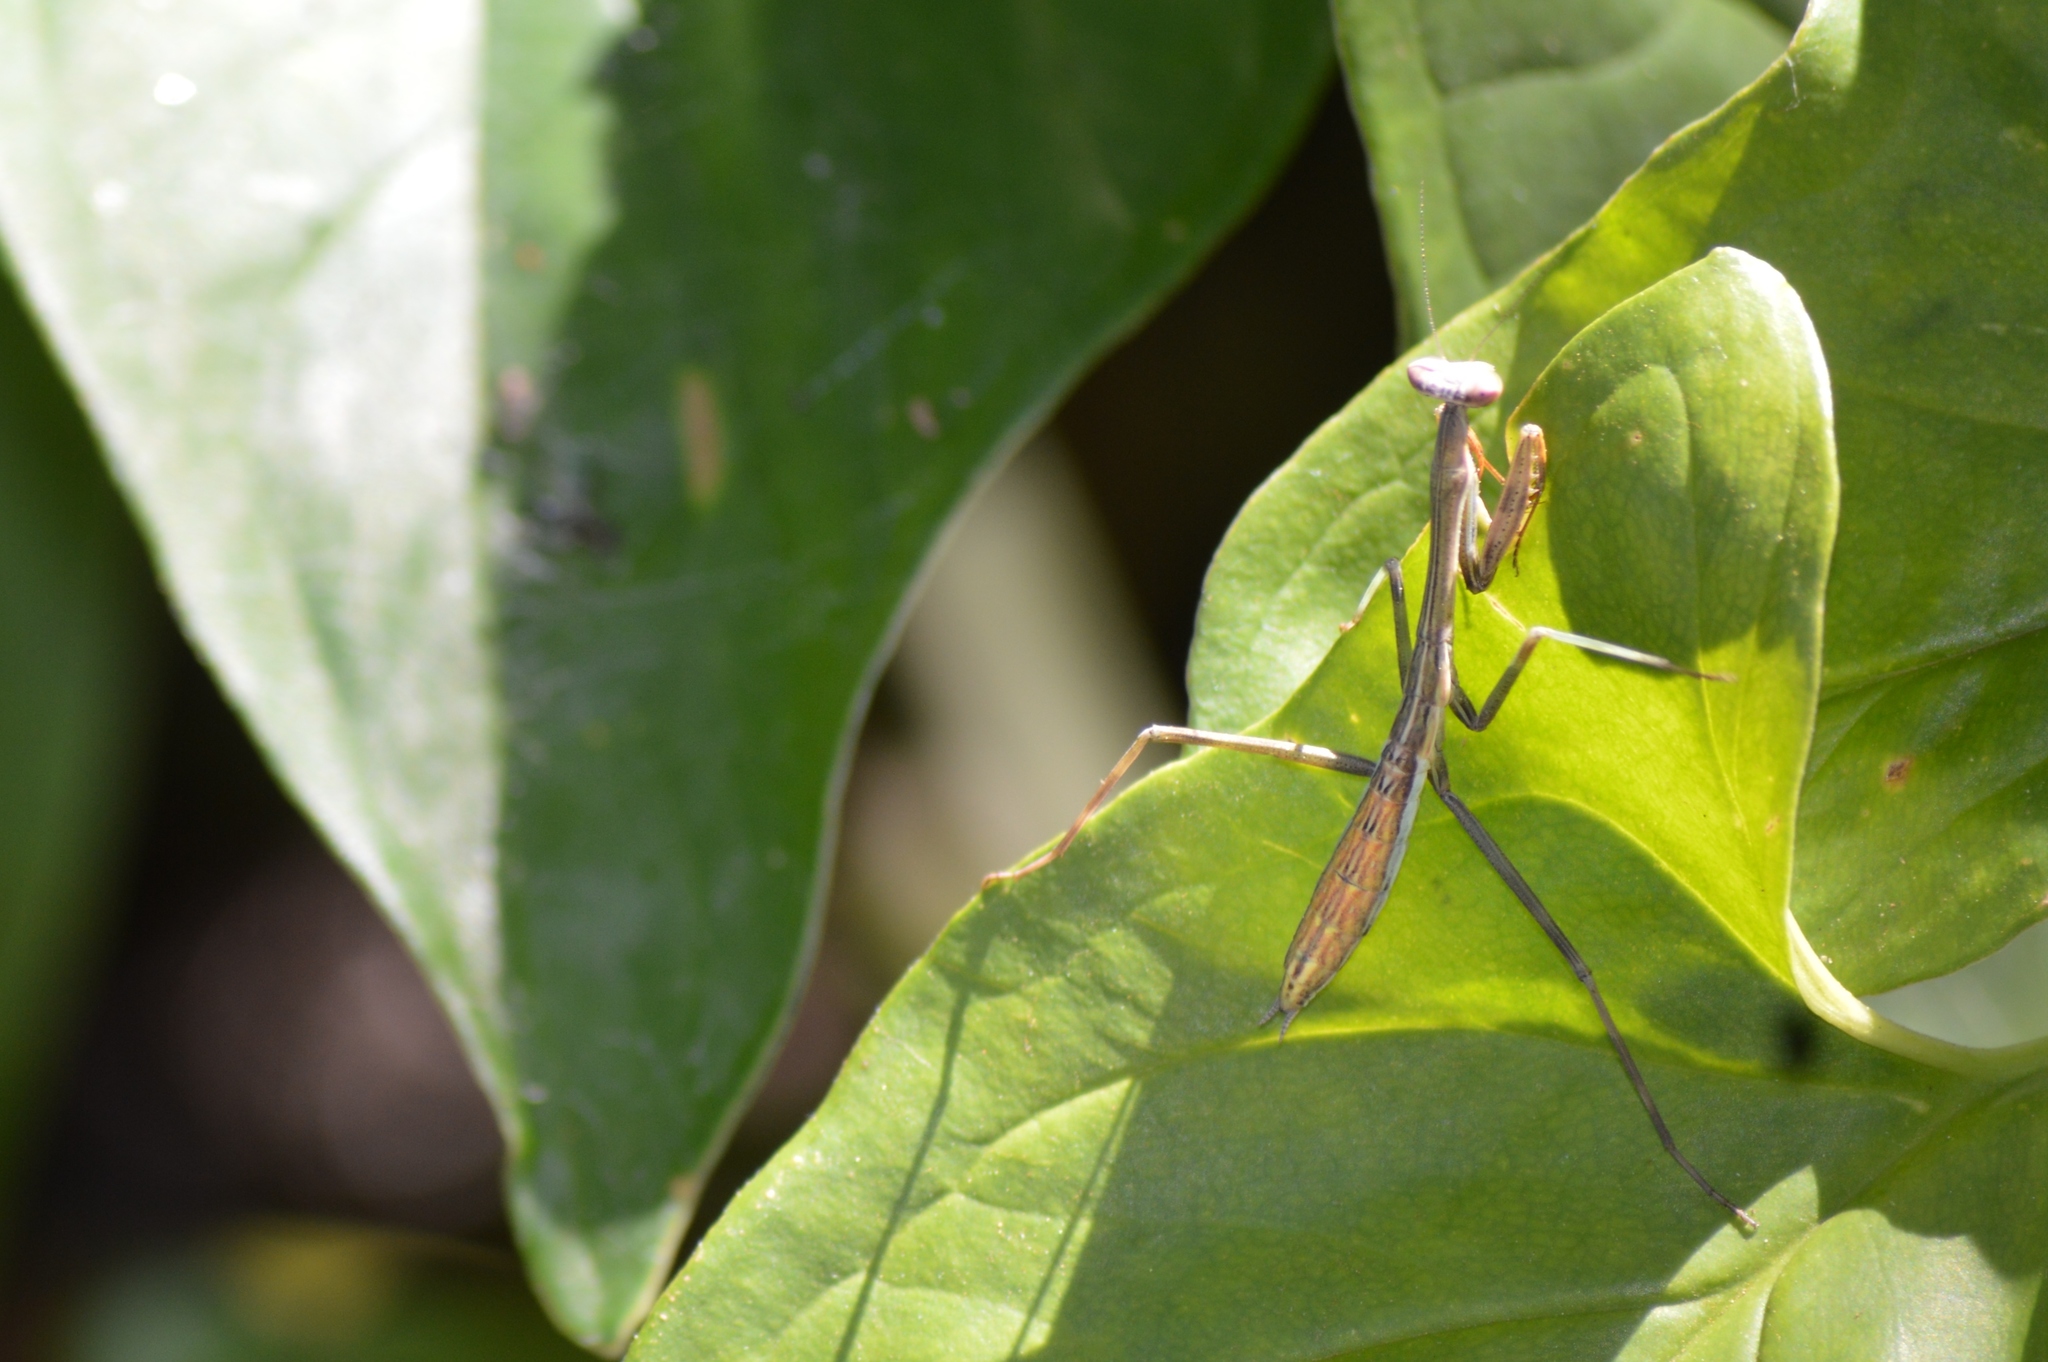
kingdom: Animalia
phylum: Arthropoda
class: Insecta
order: Mantodea
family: Mantidae
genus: Oxyopsis
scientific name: Oxyopsis
